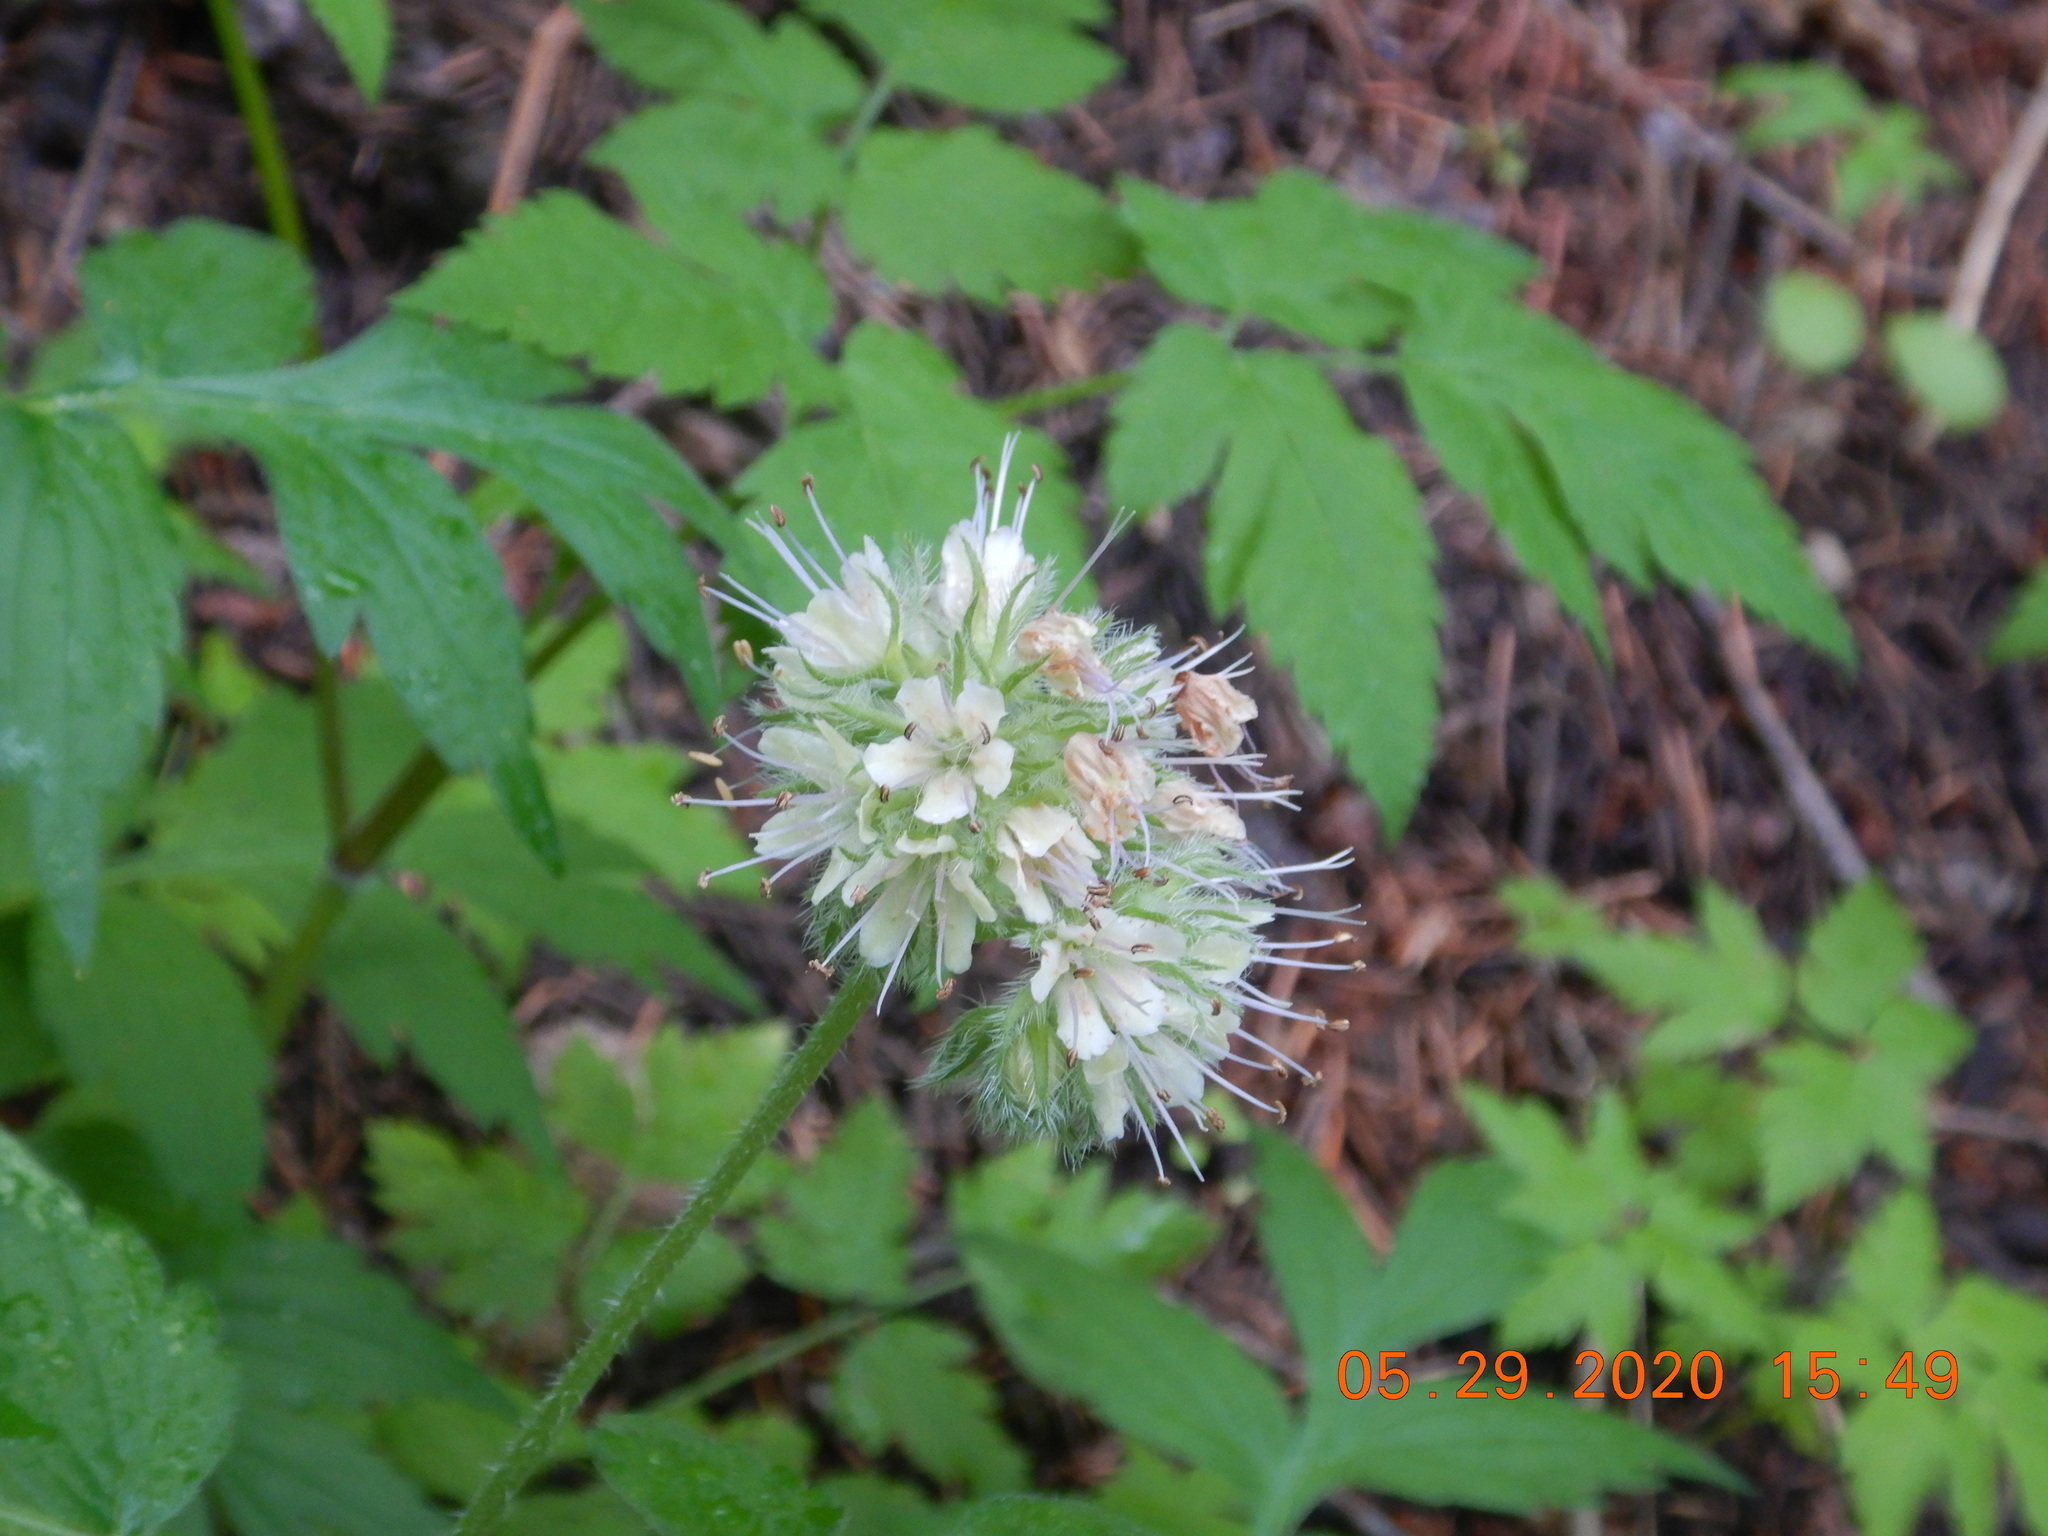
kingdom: Plantae
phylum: Tracheophyta
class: Magnoliopsida
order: Boraginales
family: Hydrophyllaceae
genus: Hydrophyllum
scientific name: Hydrophyllum fendleri
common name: Fendler's waterleaf
